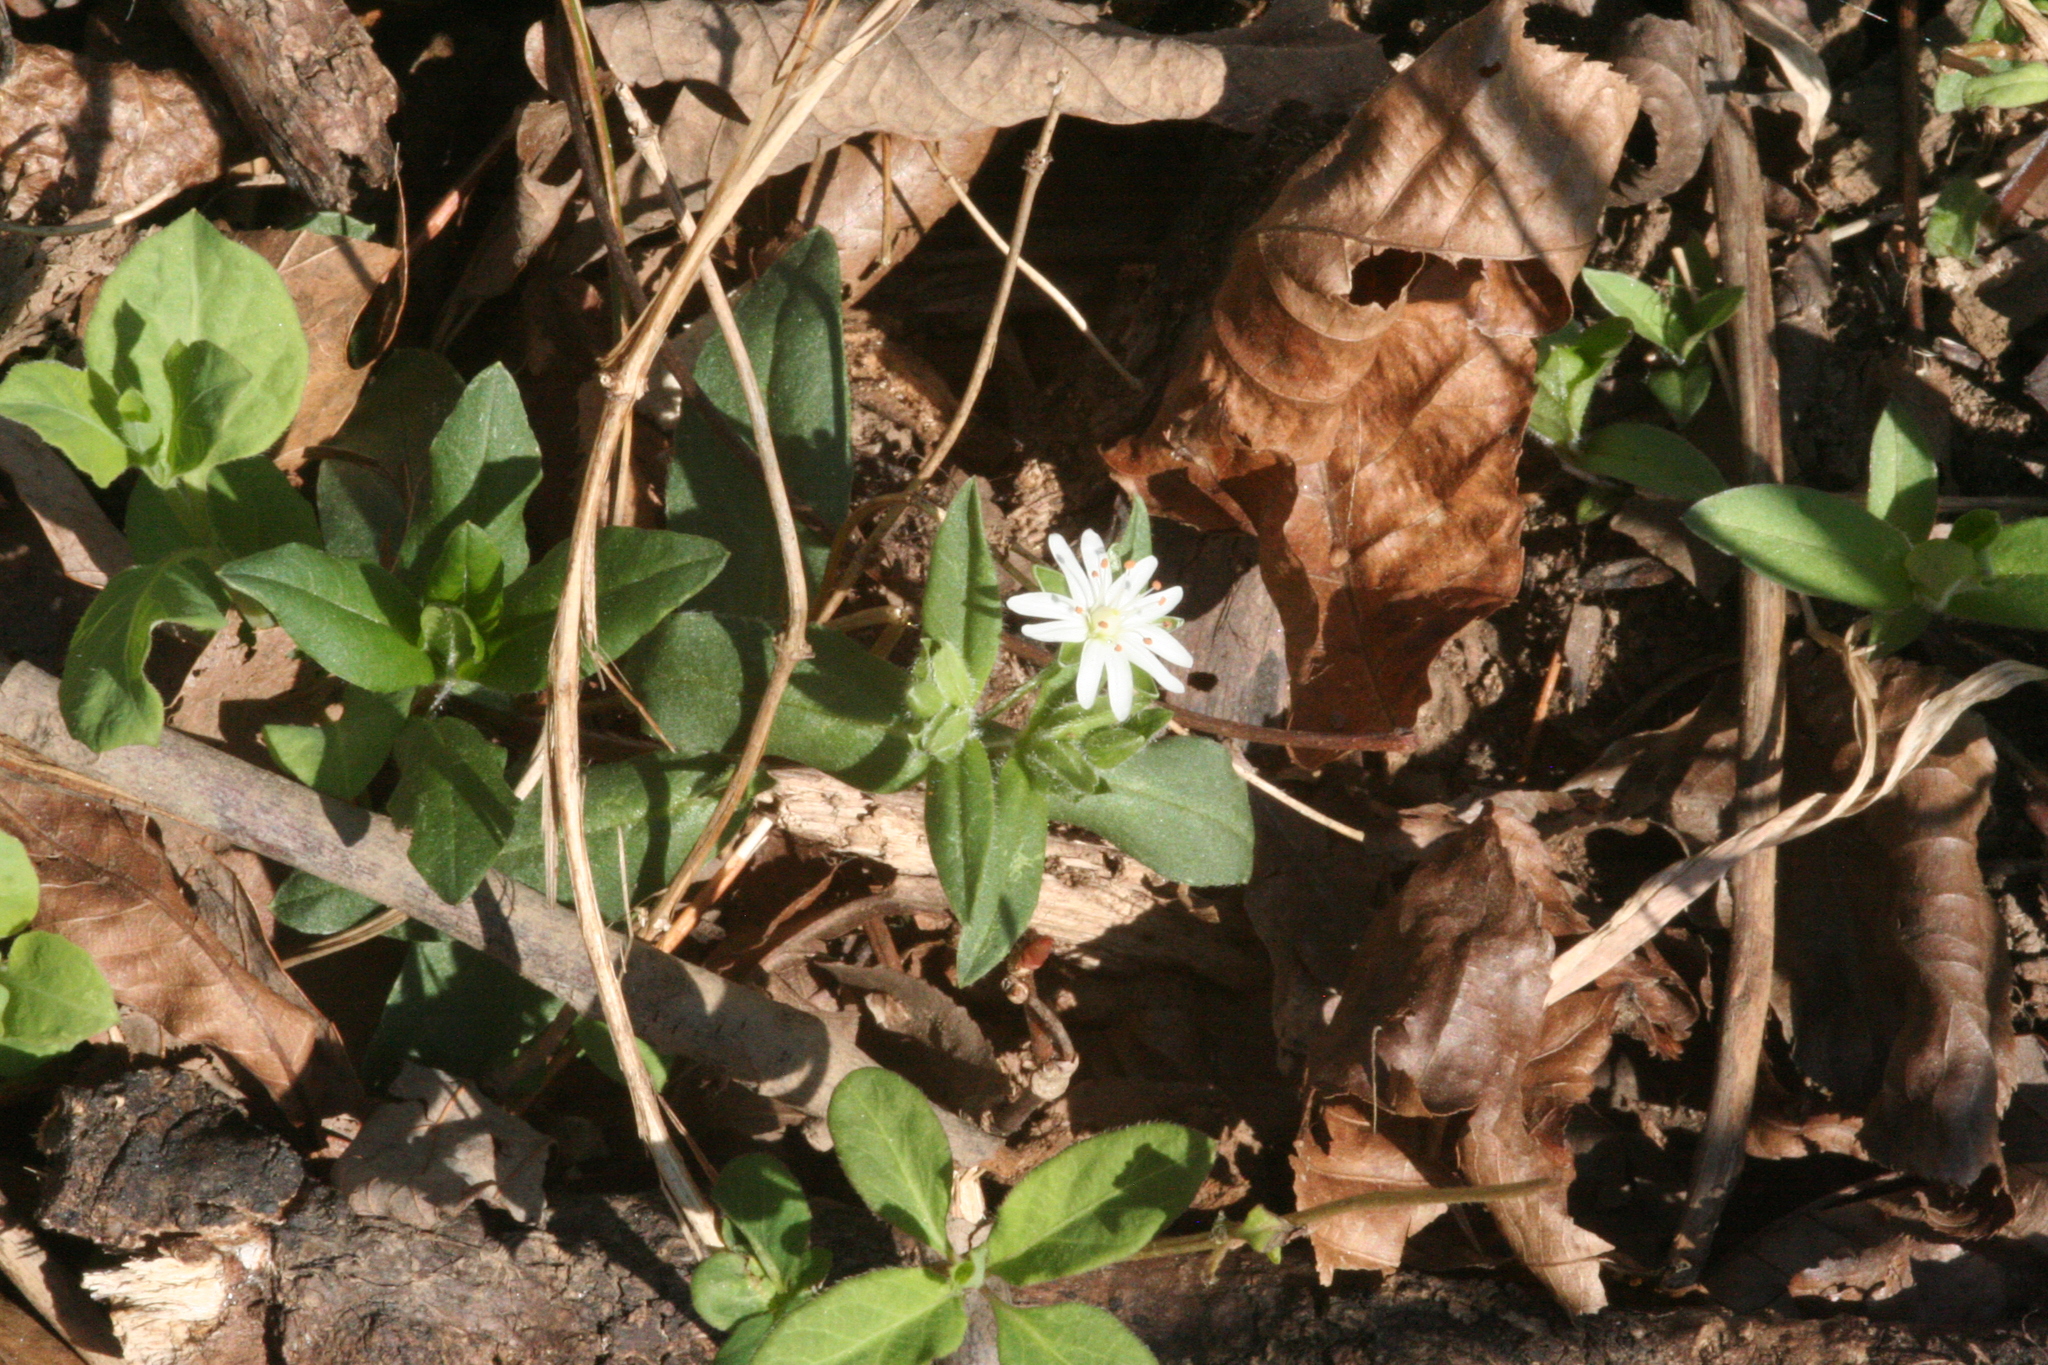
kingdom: Plantae
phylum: Tracheophyta
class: Magnoliopsida
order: Caryophyllales
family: Caryophyllaceae
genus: Stellaria
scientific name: Stellaria pubera
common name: Star chickweed
